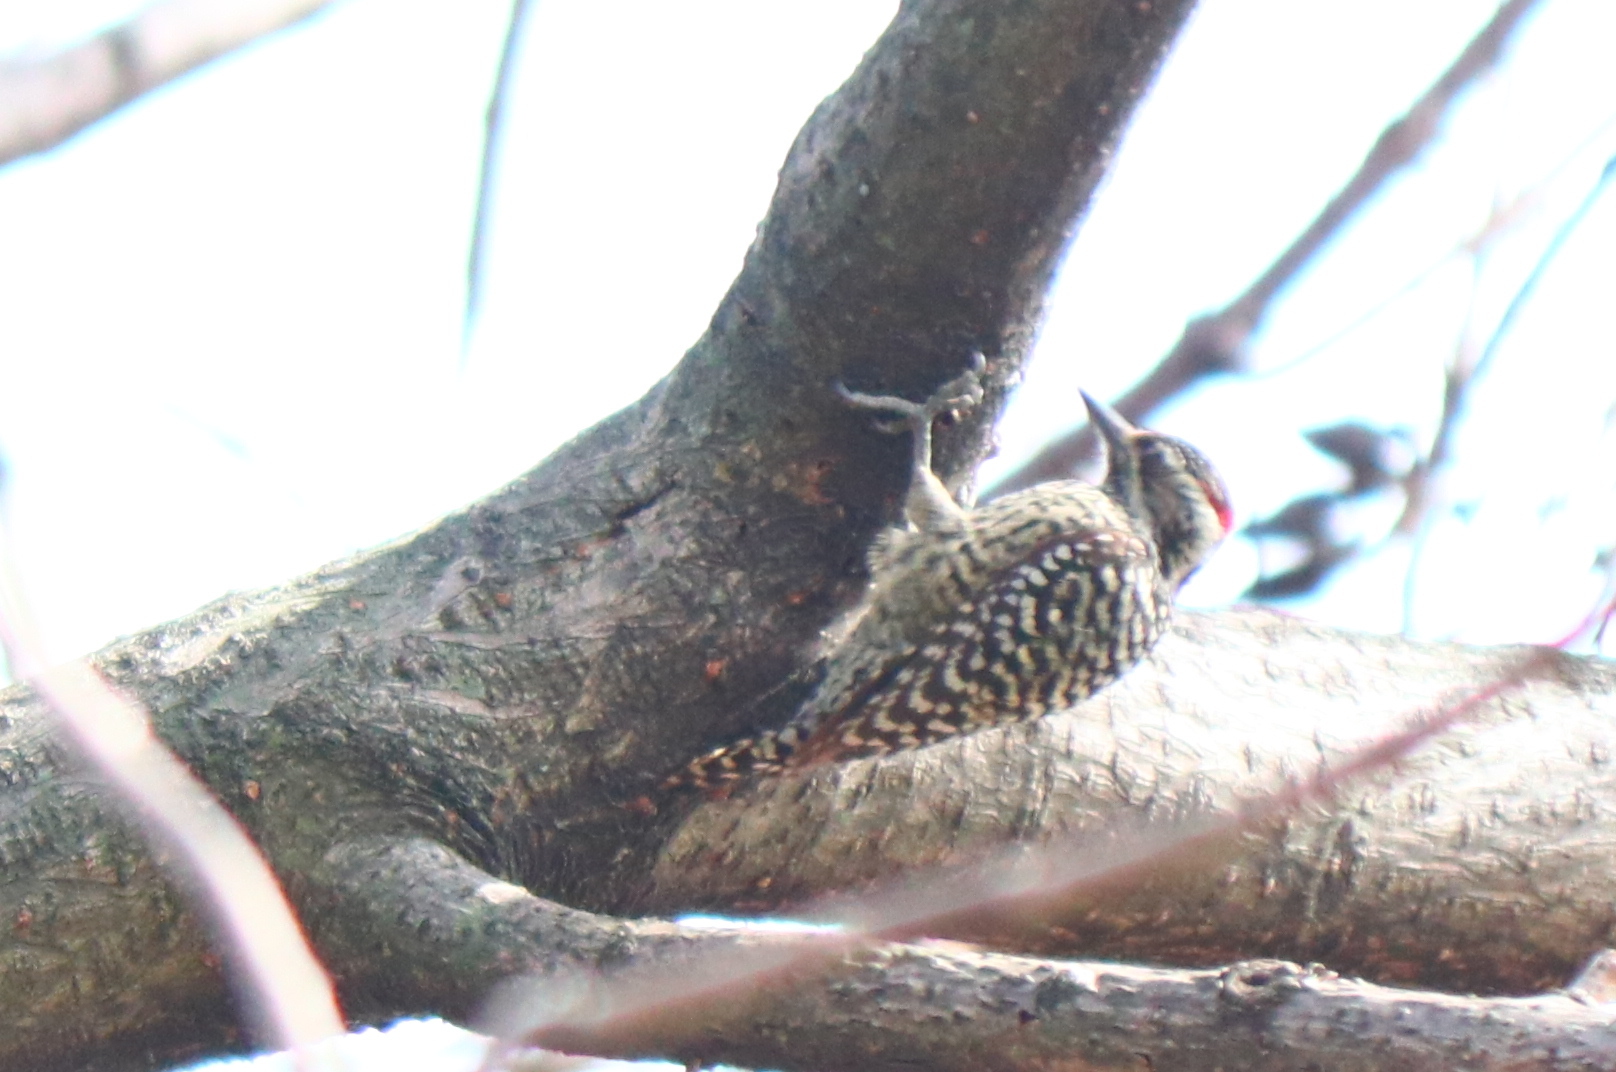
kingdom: Animalia
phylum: Chordata
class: Aves
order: Piciformes
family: Picidae
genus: Veniliornis
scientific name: Veniliornis mixtus
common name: Checkered woodpecker
